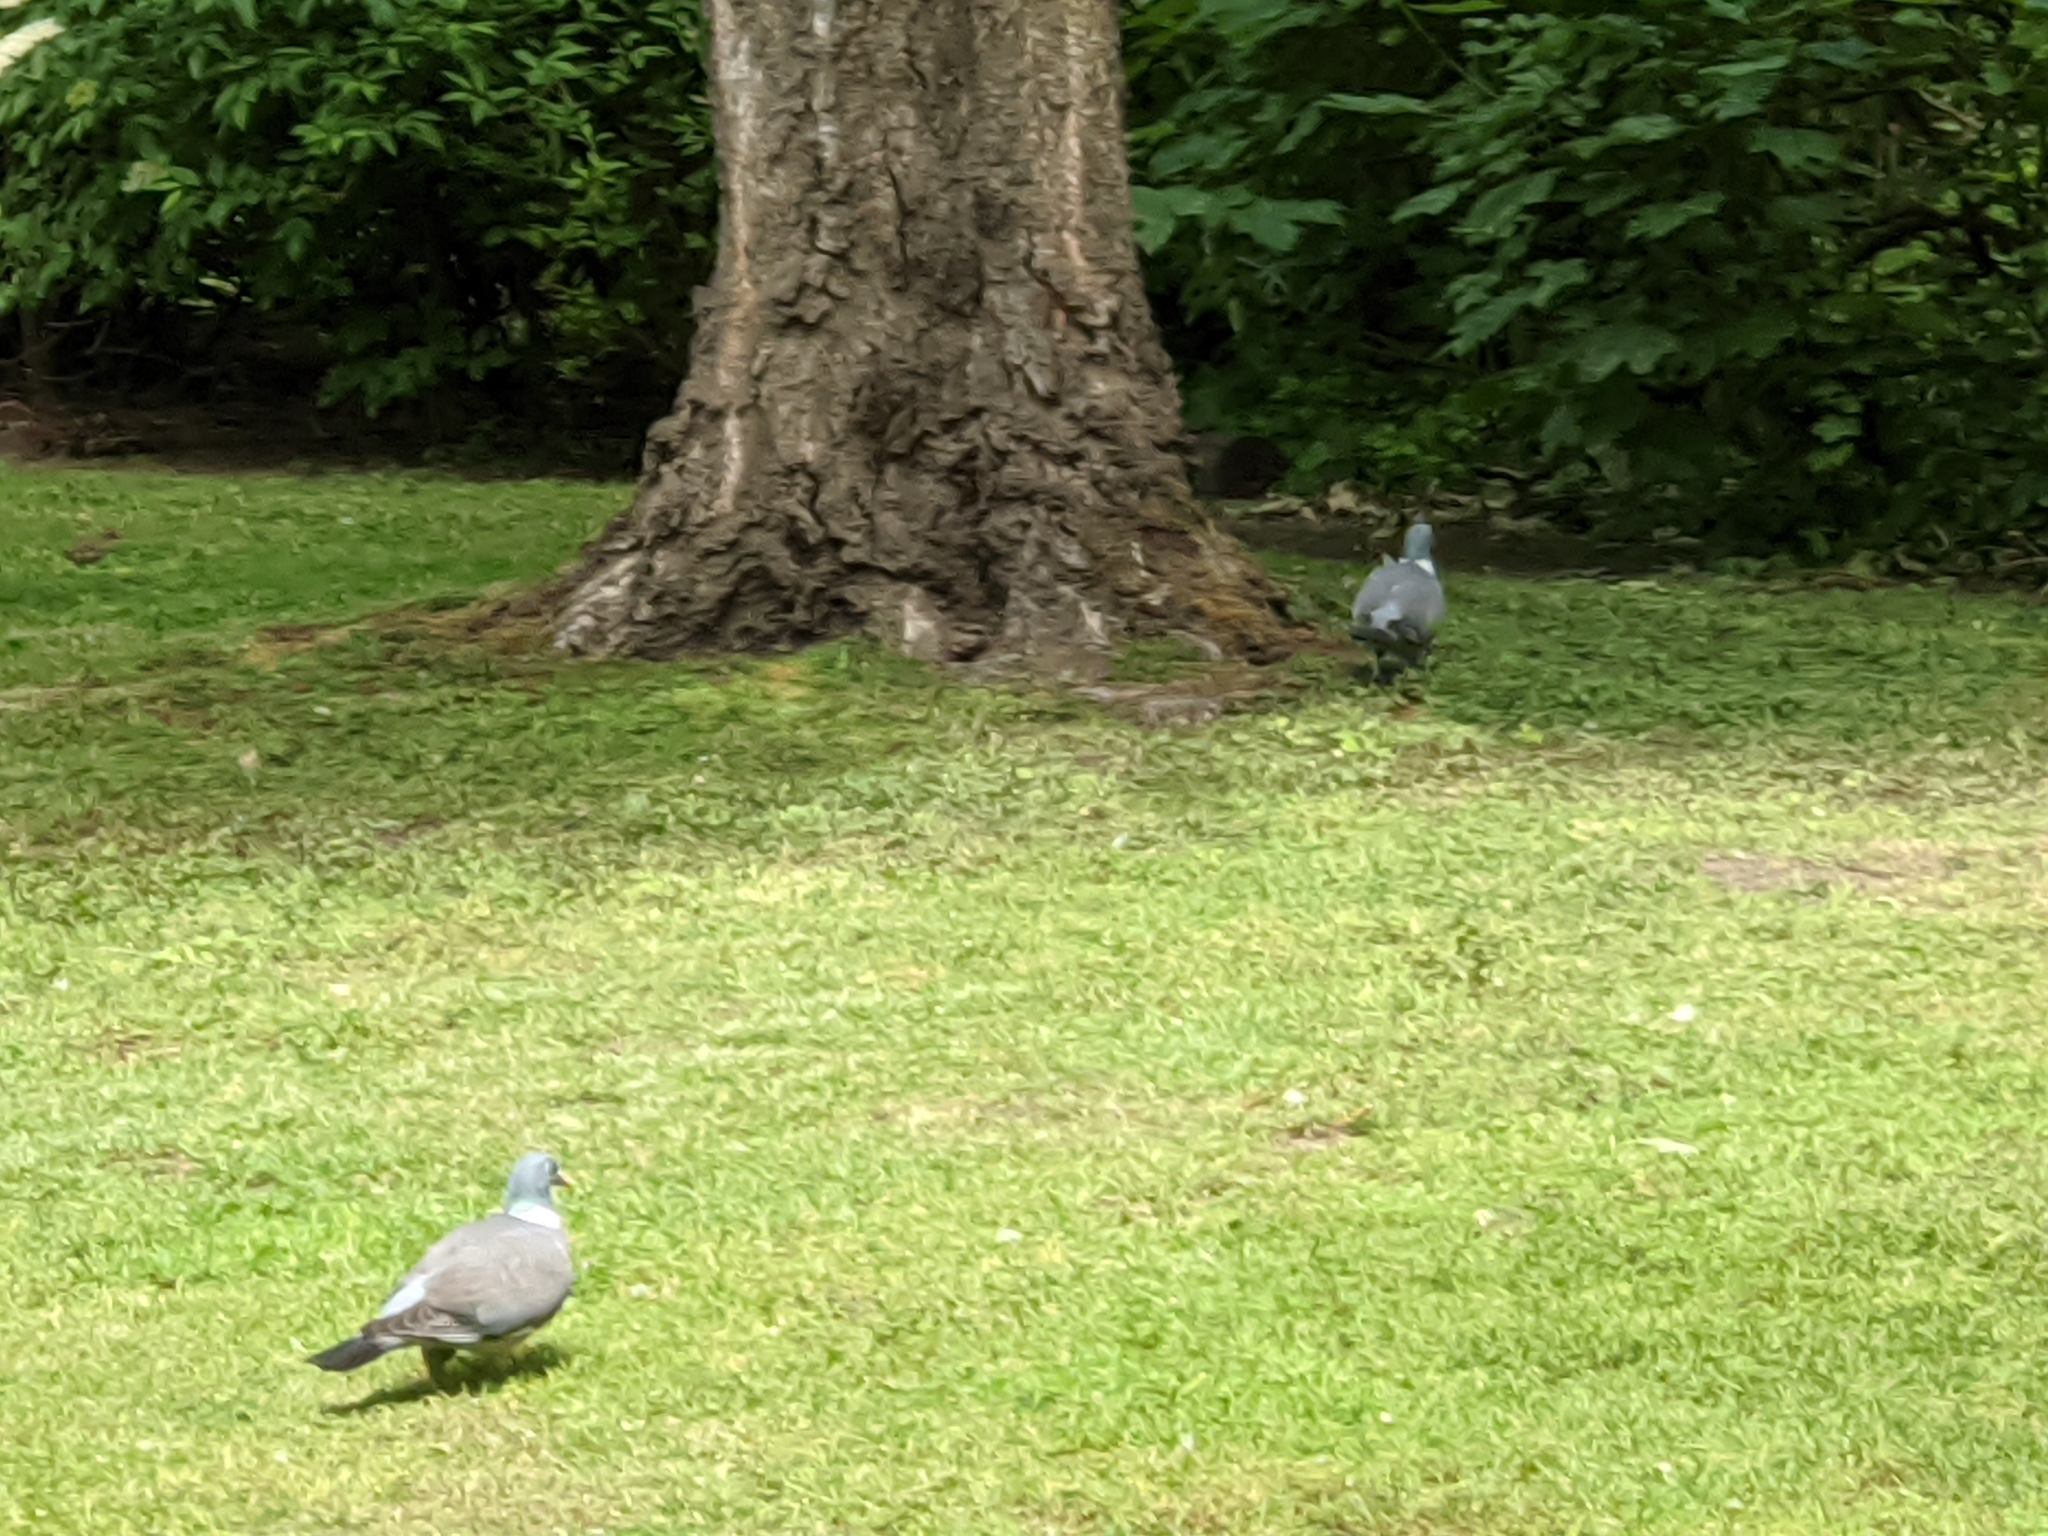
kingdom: Animalia
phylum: Chordata
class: Aves
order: Columbiformes
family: Columbidae
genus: Columba
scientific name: Columba palumbus
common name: Common wood pigeon
